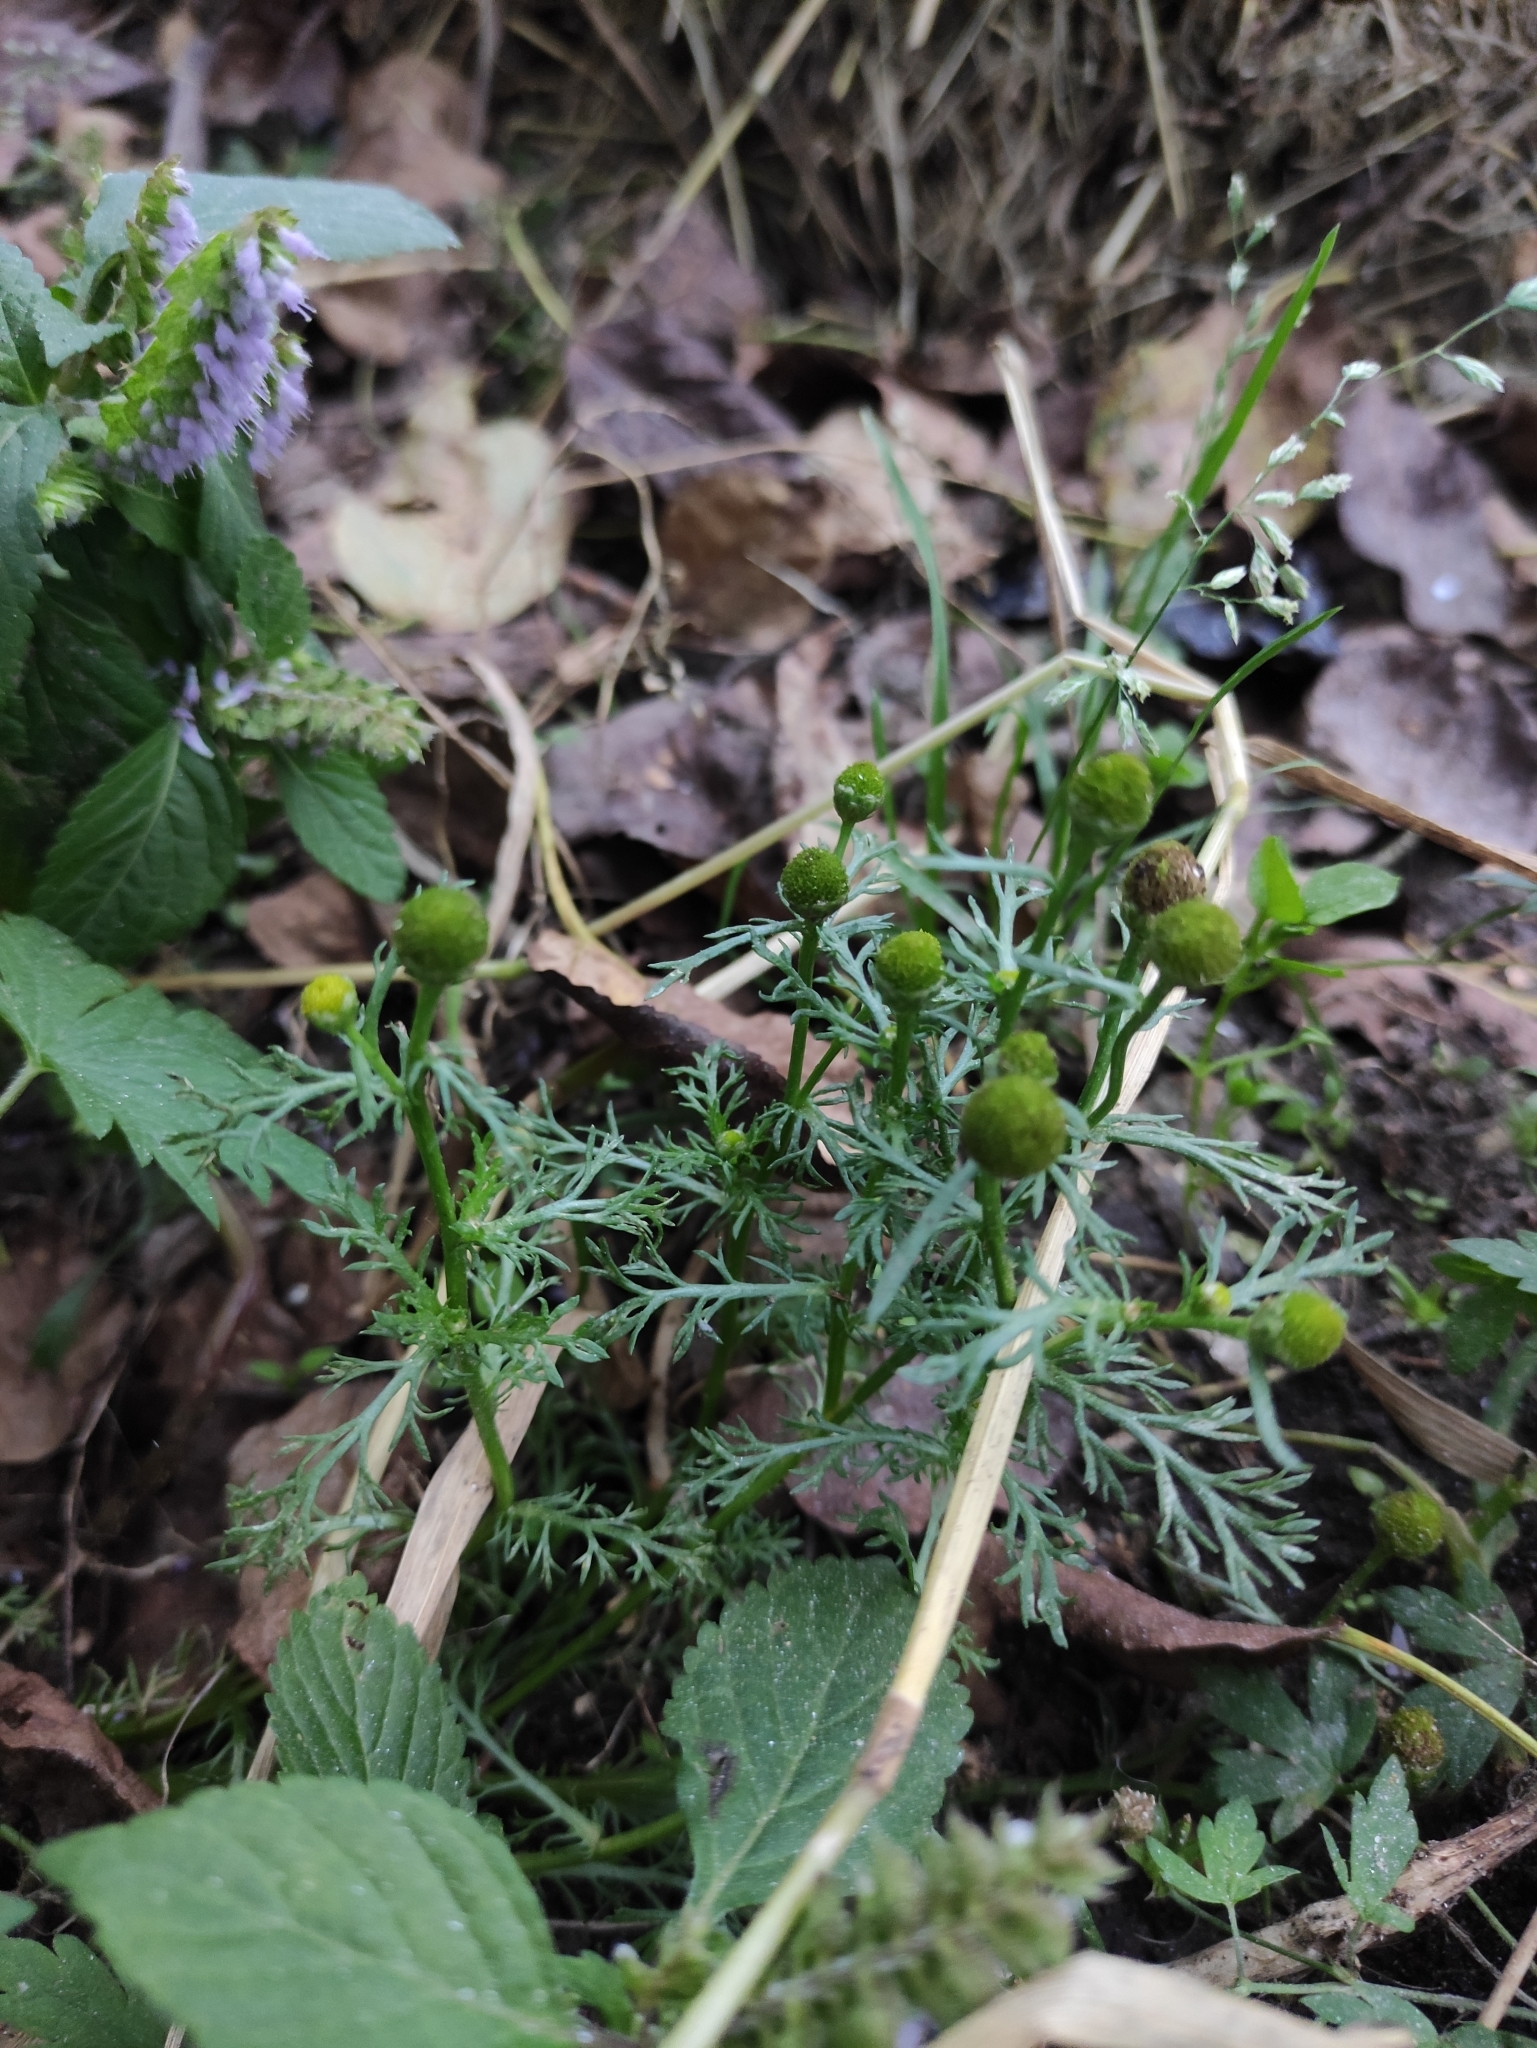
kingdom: Plantae
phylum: Tracheophyta
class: Magnoliopsida
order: Asterales
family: Asteraceae
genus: Matricaria
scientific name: Matricaria discoidea
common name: Disc mayweed
